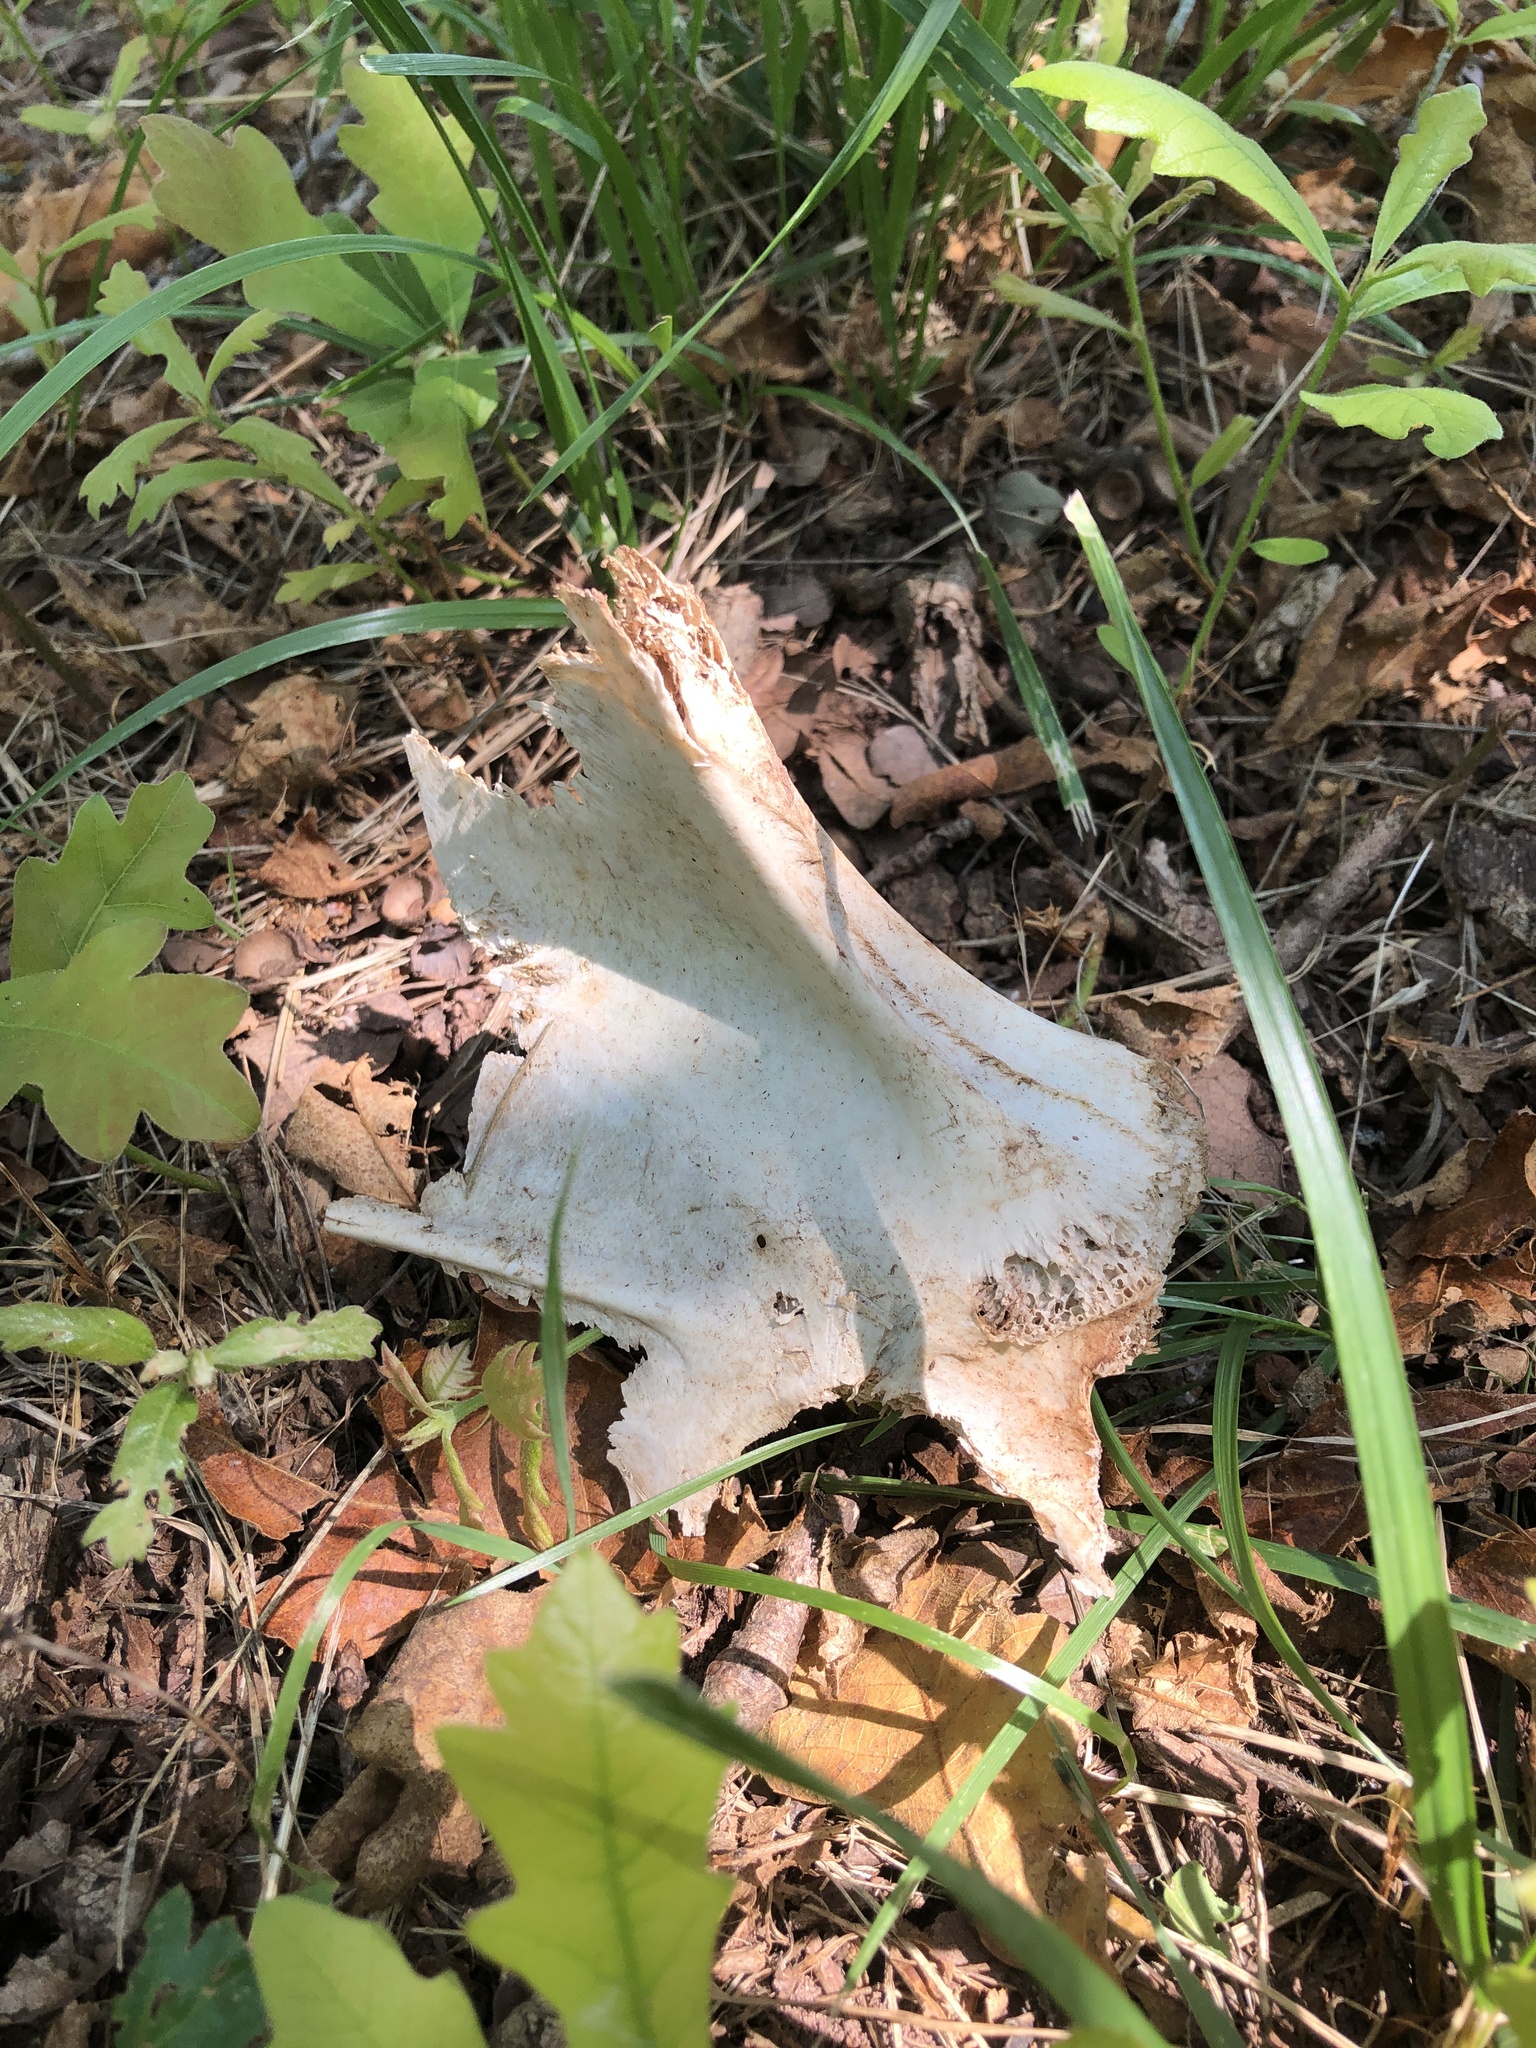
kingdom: Animalia
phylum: Chordata
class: Aves
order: Galliformes
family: Phasianidae
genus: Meleagris
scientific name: Meleagris gallopavo
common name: Wild turkey
